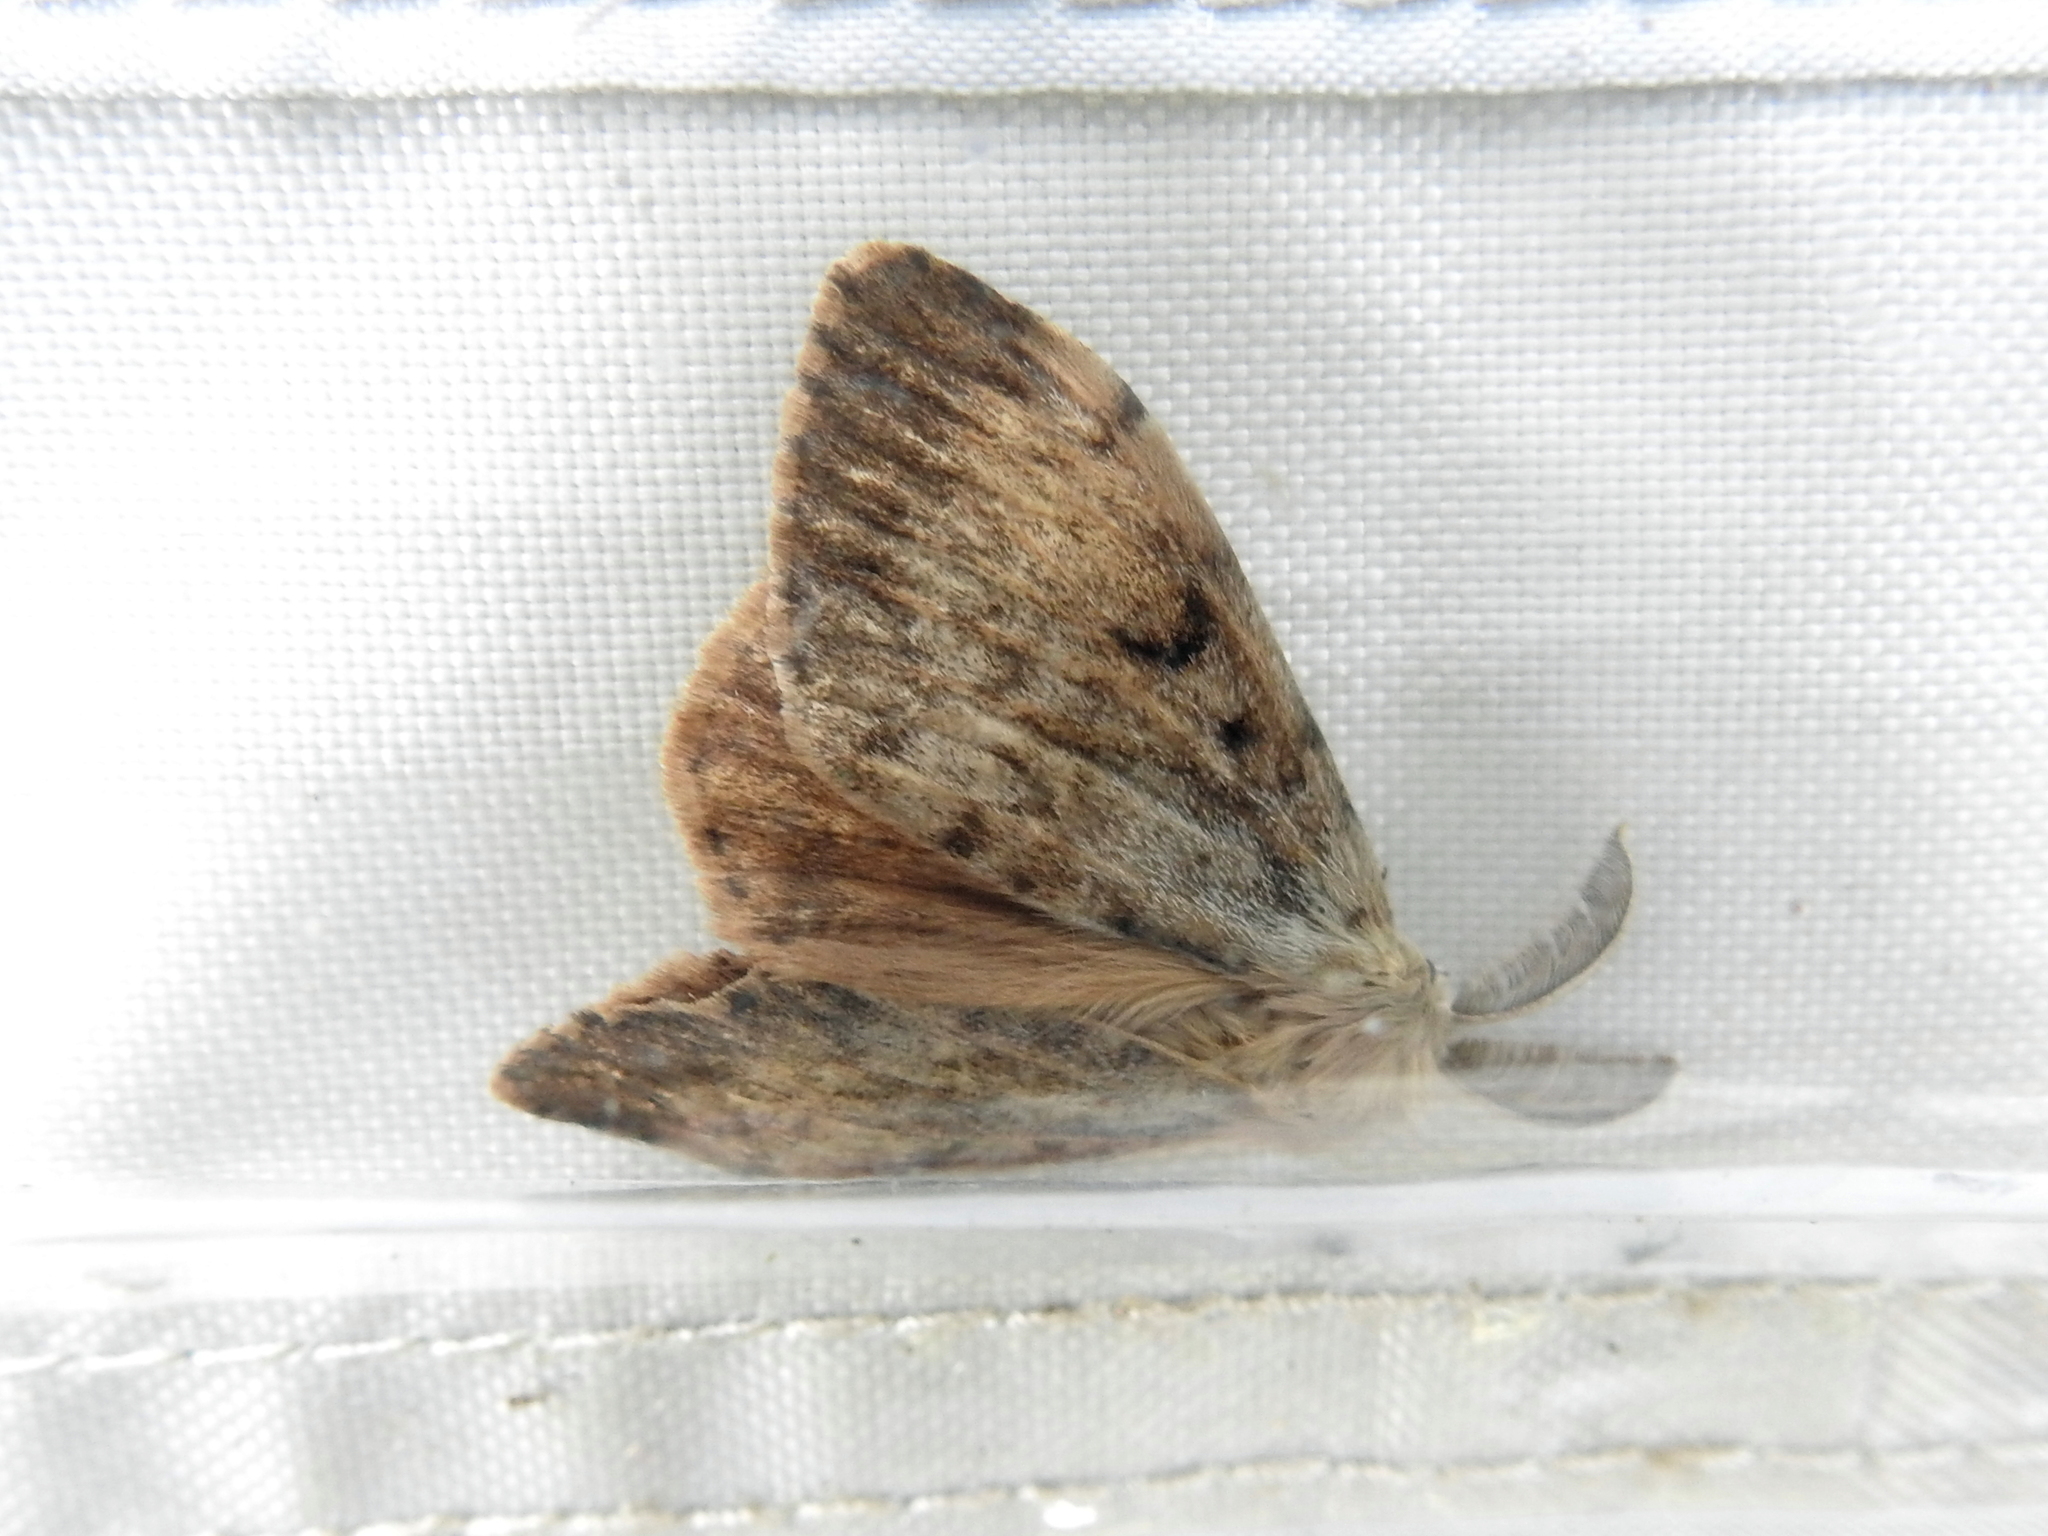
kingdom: Animalia
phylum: Arthropoda
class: Insecta
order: Lepidoptera
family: Erebidae
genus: Lymantria
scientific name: Lymantria dispar
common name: Gypsy moth
